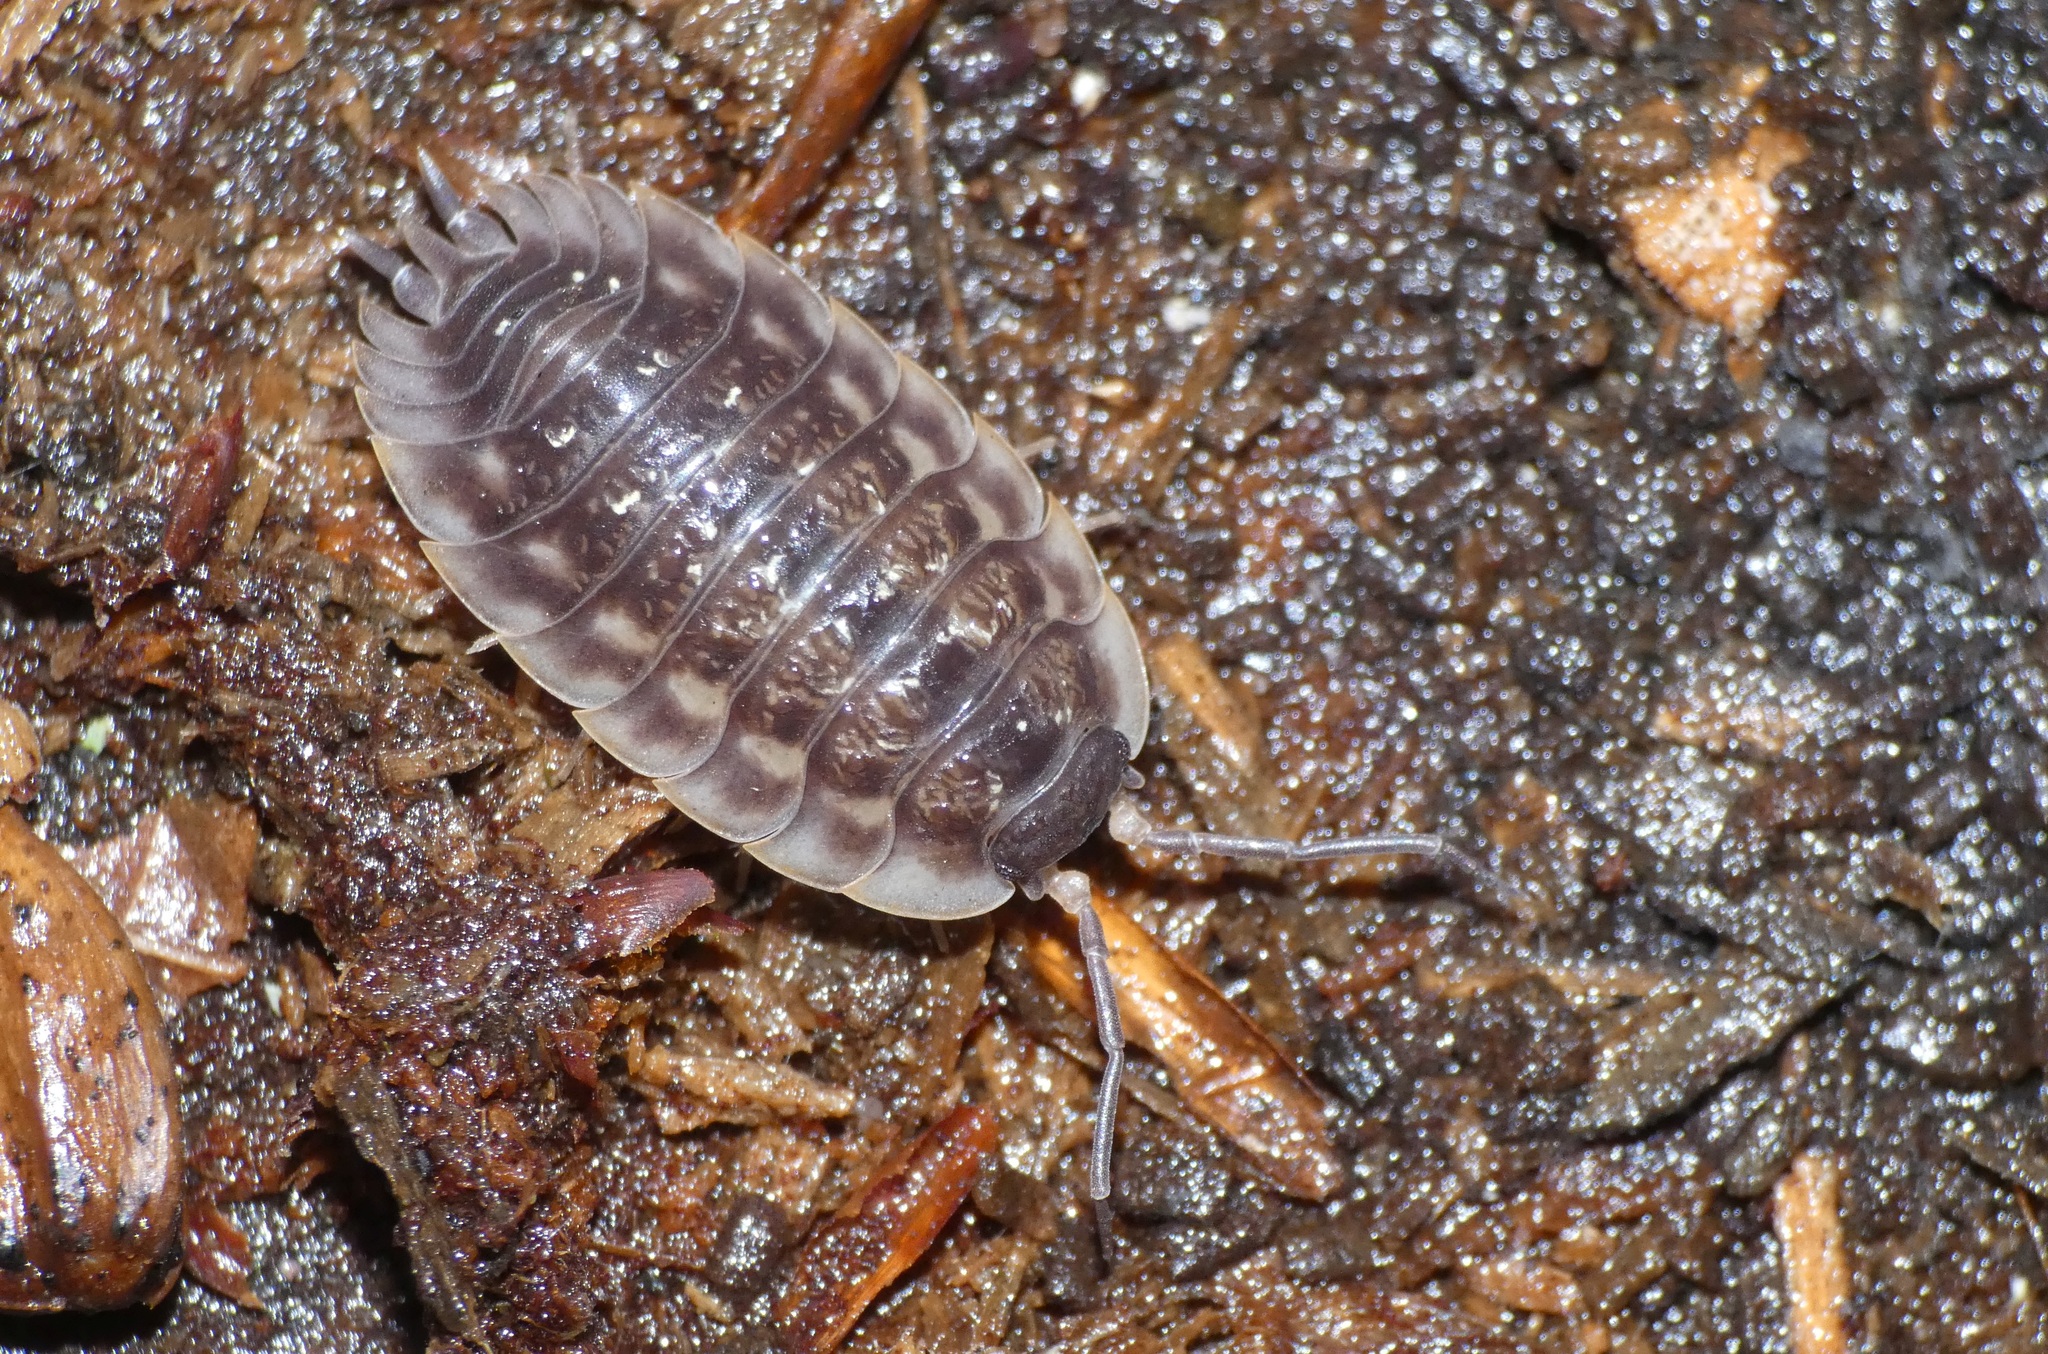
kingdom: Animalia
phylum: Arthropoda
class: Malacostraca
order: Isopoda
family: Oniscidae
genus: Oniscus
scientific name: Oniscus asellus
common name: Common shiny woodlouse
